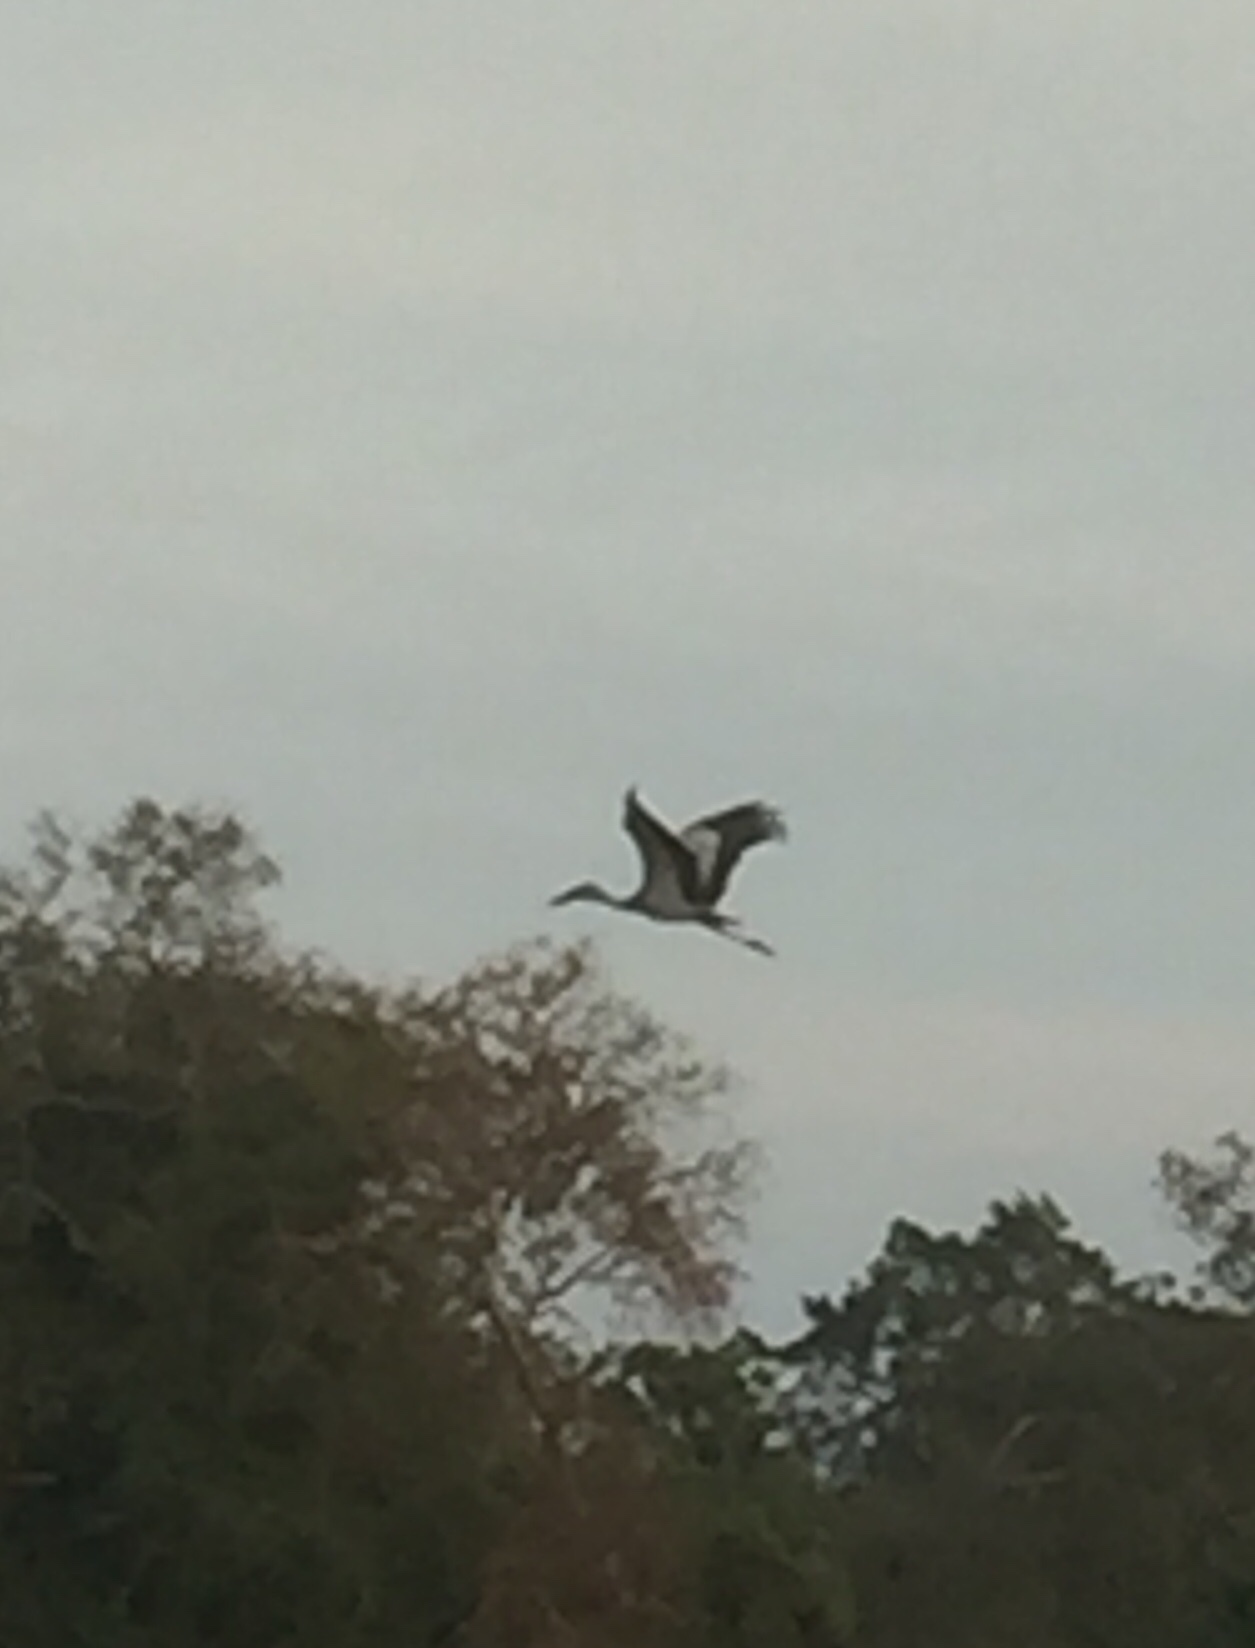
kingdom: Animalia
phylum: Chordata
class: Aves
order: Ciconiiformes
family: Ciconiidae
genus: Anastomus
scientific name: Anastomus oscitans
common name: Asian openbill
